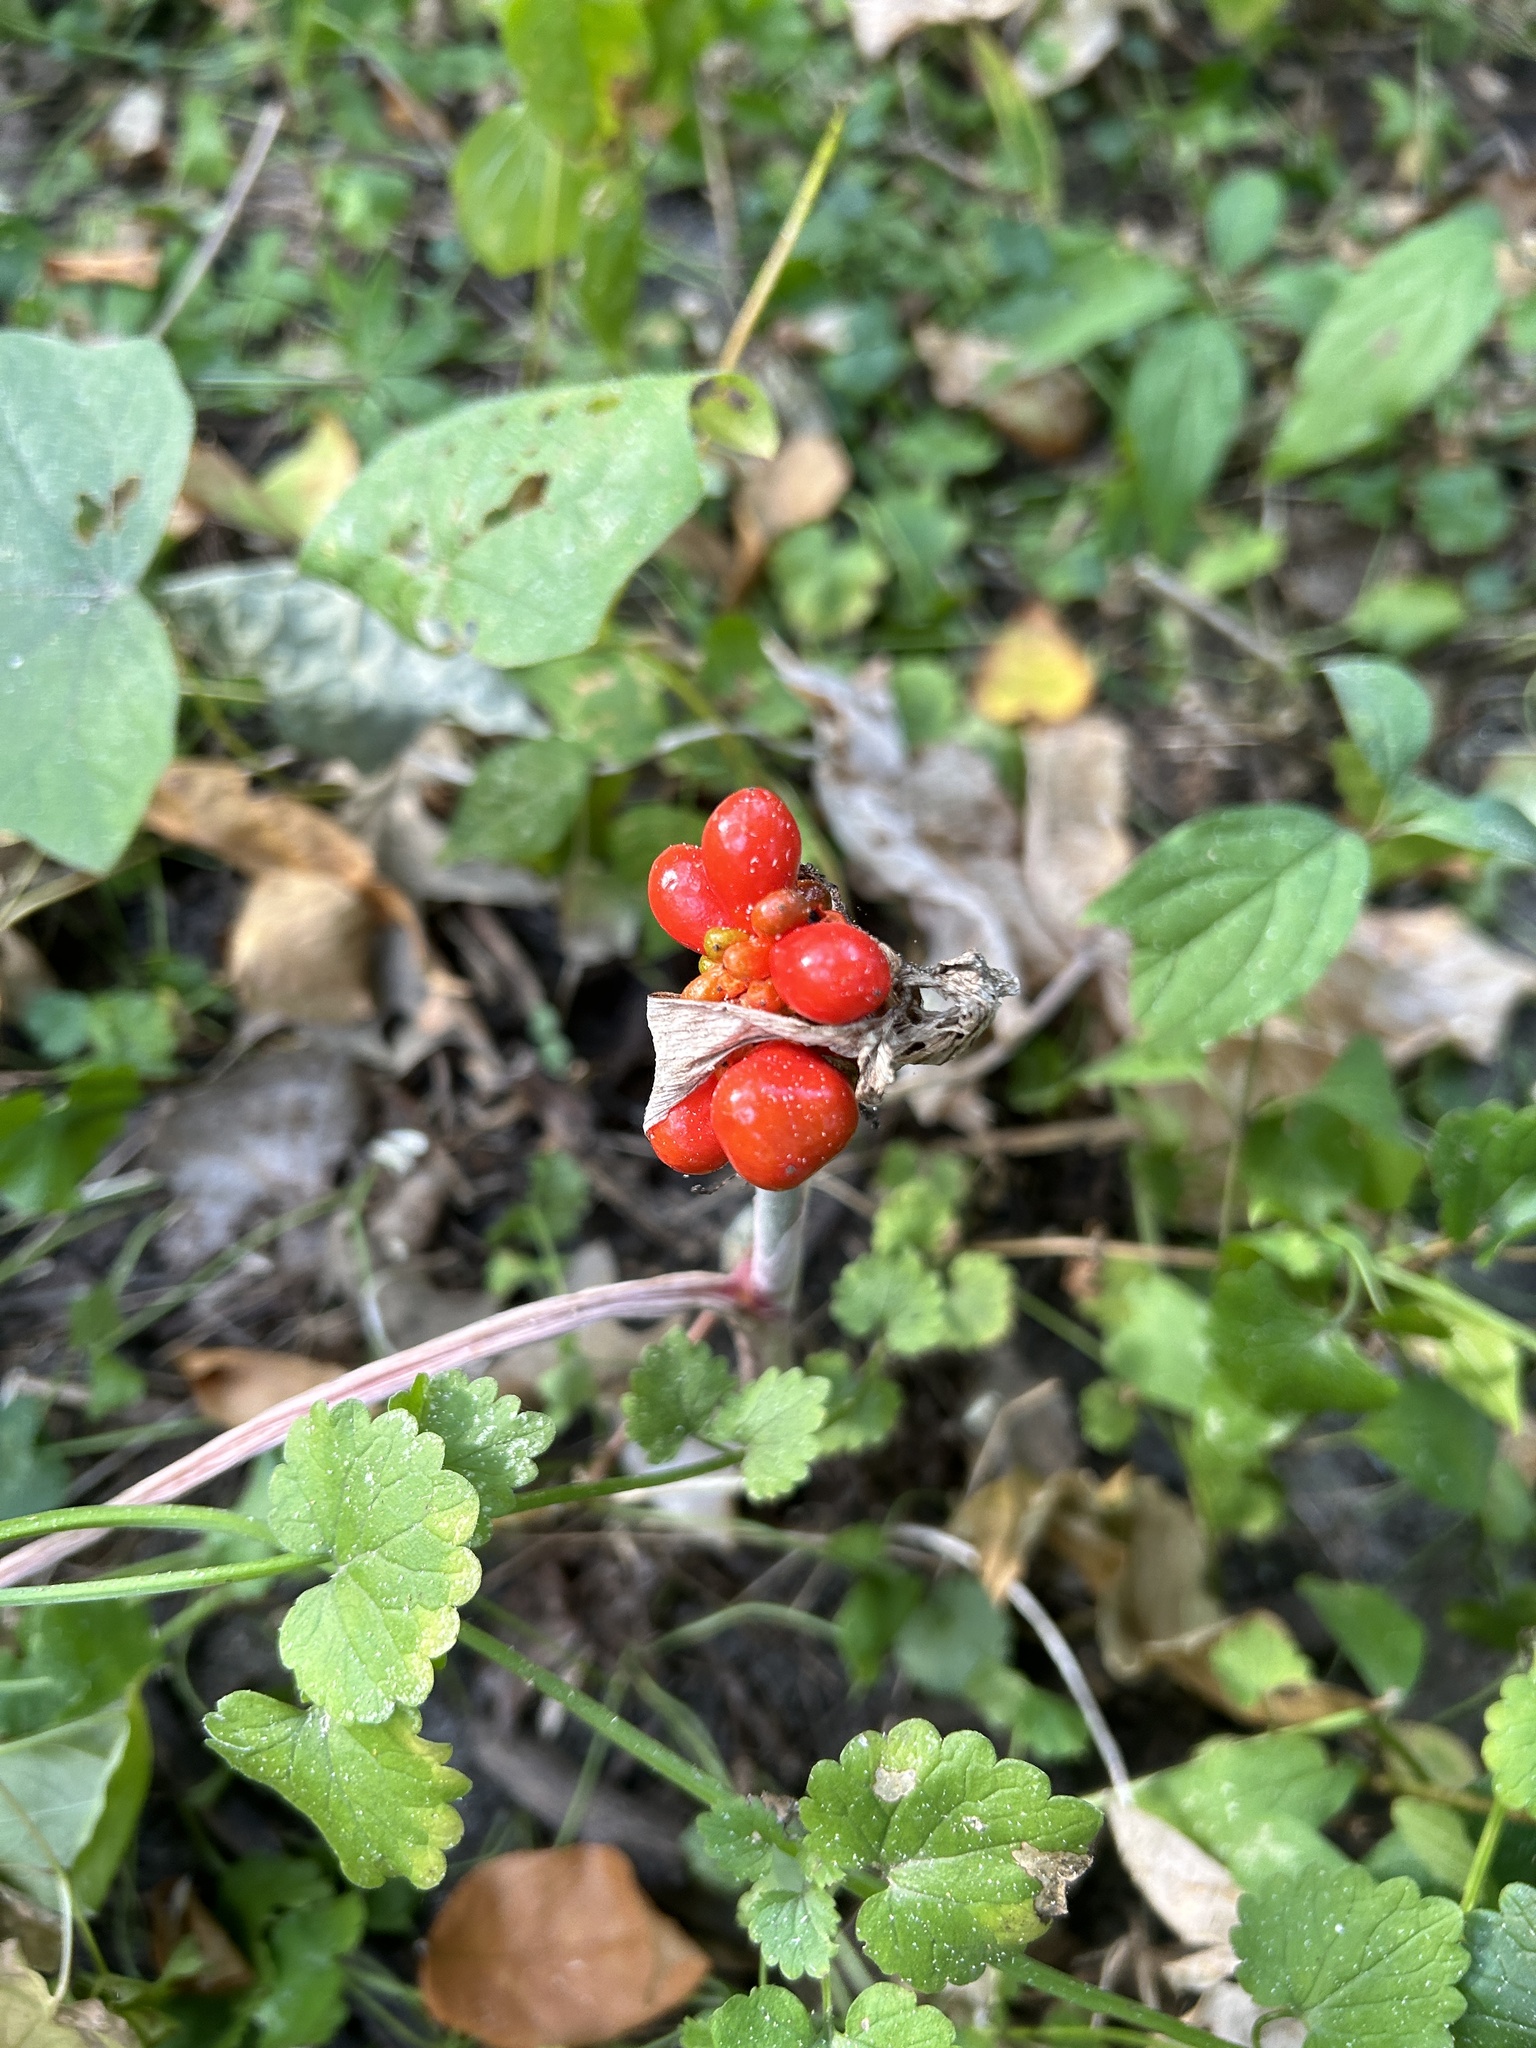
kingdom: Plantae
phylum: Tracheophyta
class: Liliopsida
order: Alismatales
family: Araceae
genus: Arisaema
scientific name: Arisaema triphyllum
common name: Jack-in-the-pulpit
